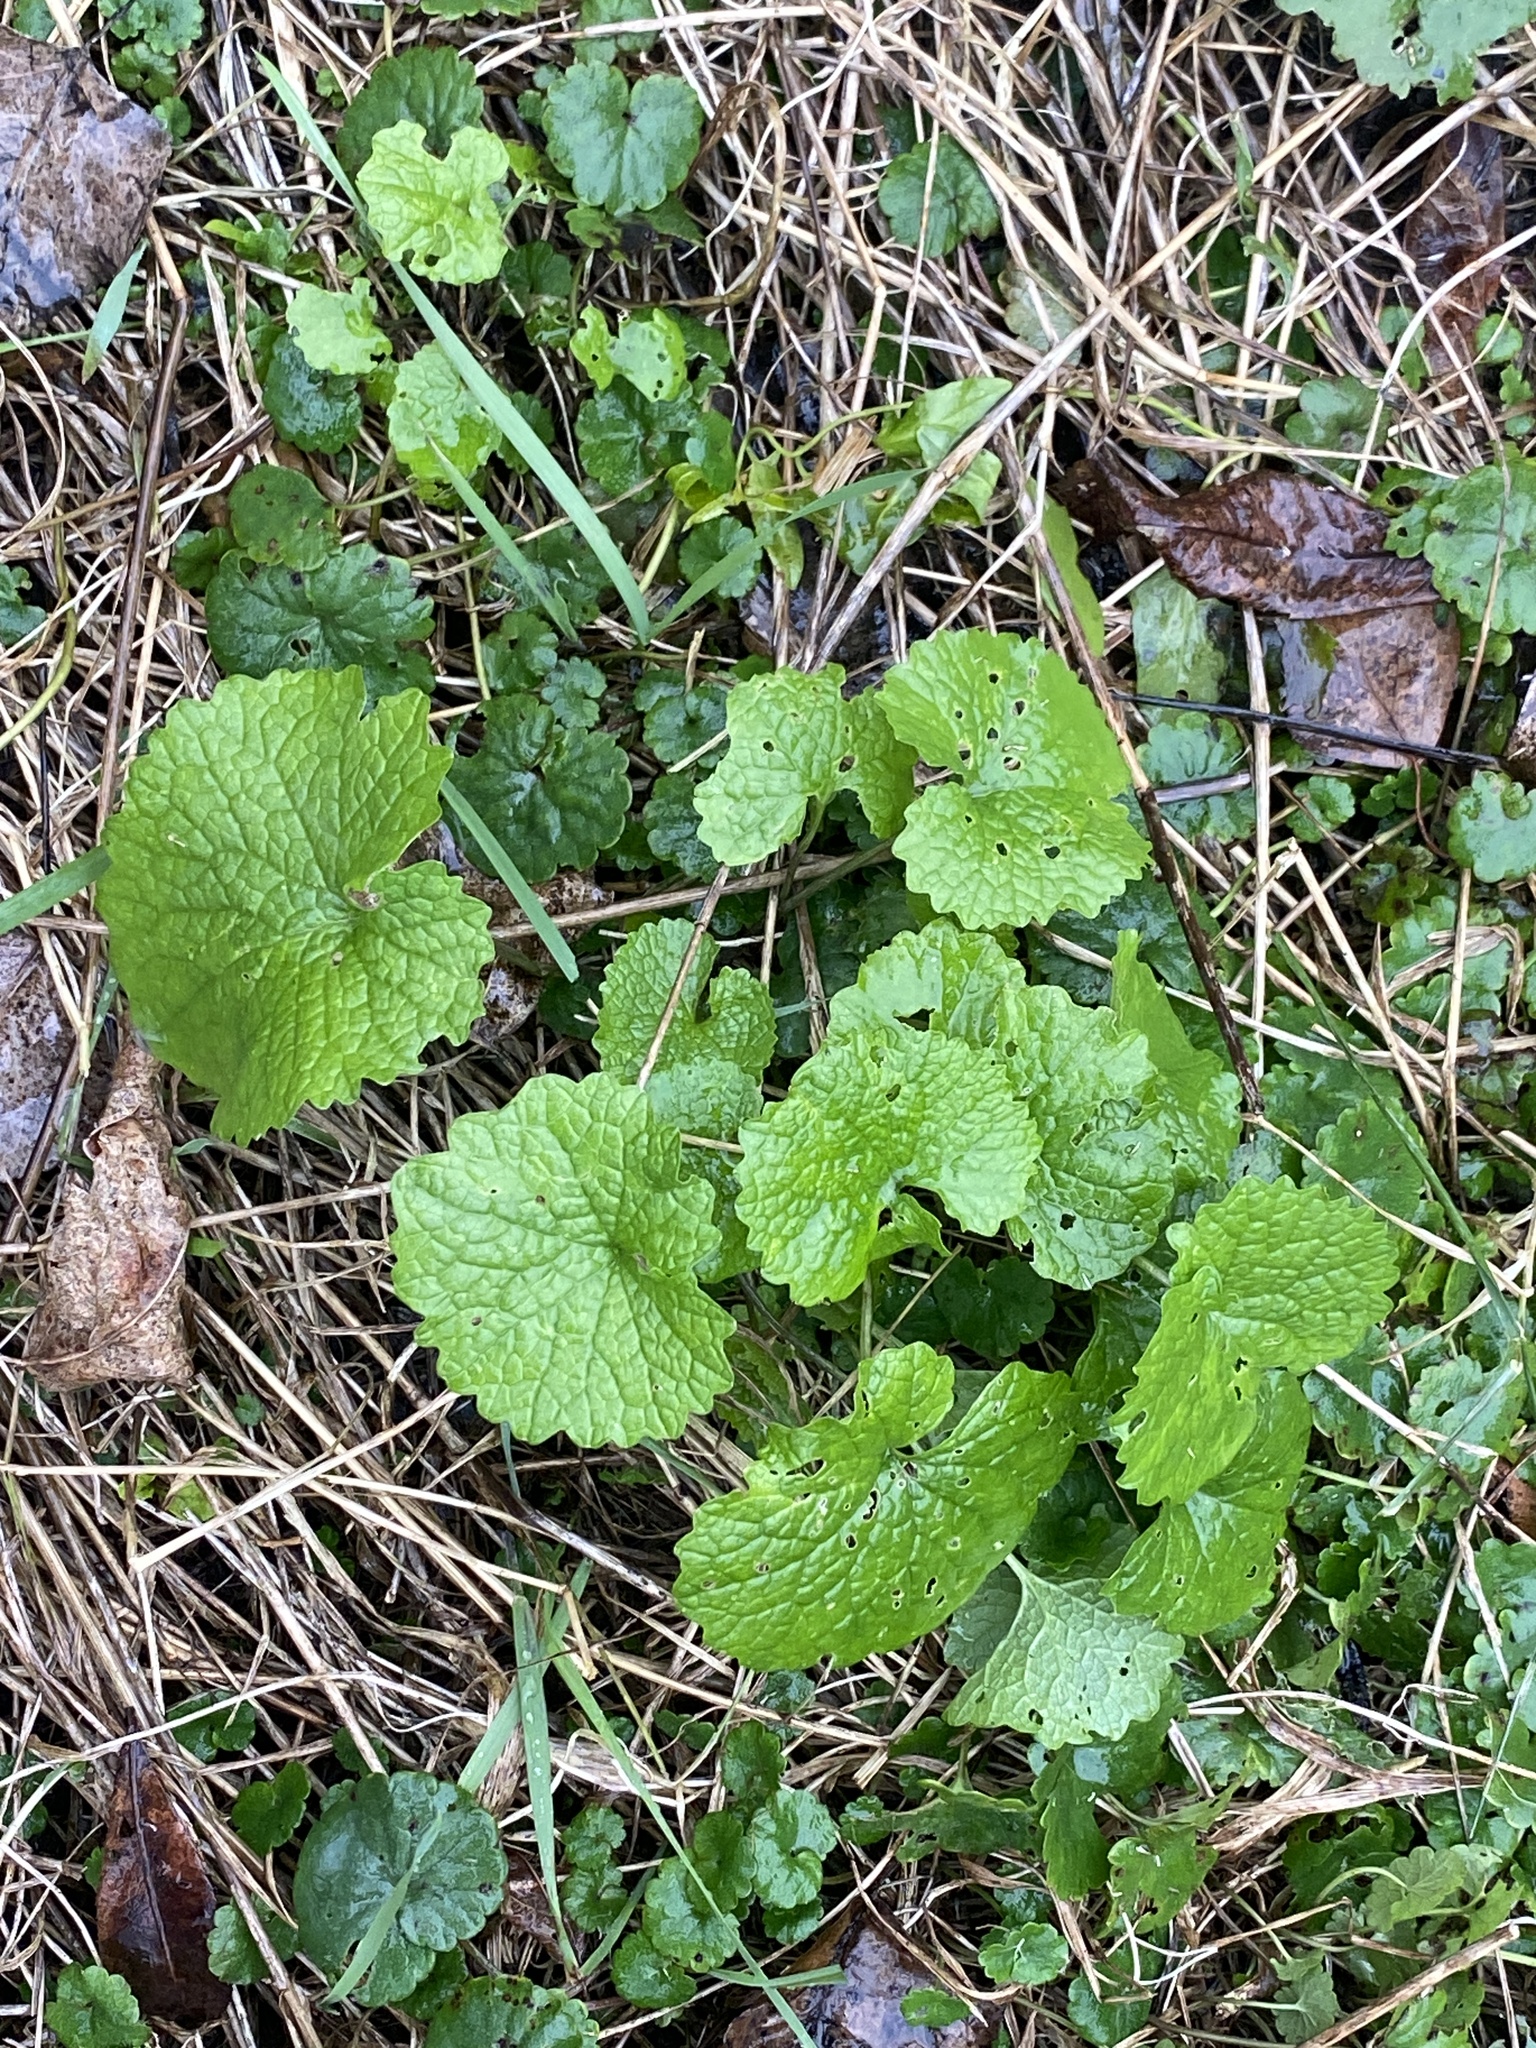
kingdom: Plantae
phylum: Tracheophyta
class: Magnoliopsida
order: Brassicales
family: Brassicaceae
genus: Alliaria
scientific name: Alliaria petiolata
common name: Garlic mustard
